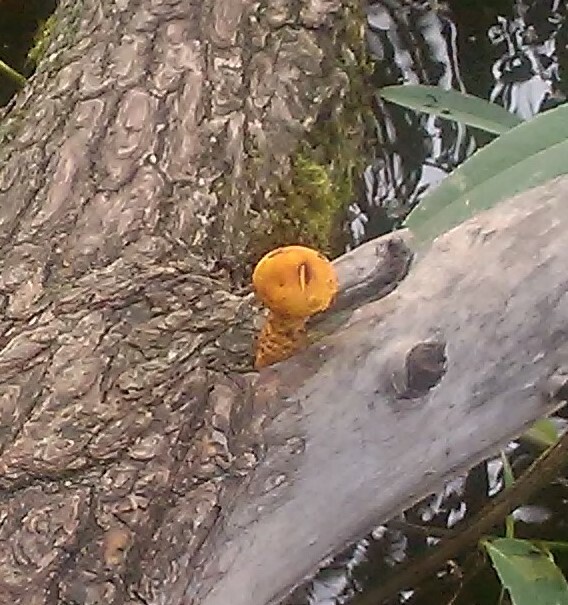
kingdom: Fungi
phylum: Basidiomycota
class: Agaricomycetes
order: Agaricales
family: Strophariaceae
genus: Pholiota
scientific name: Pholiota aurivella
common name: Golden scalycap
